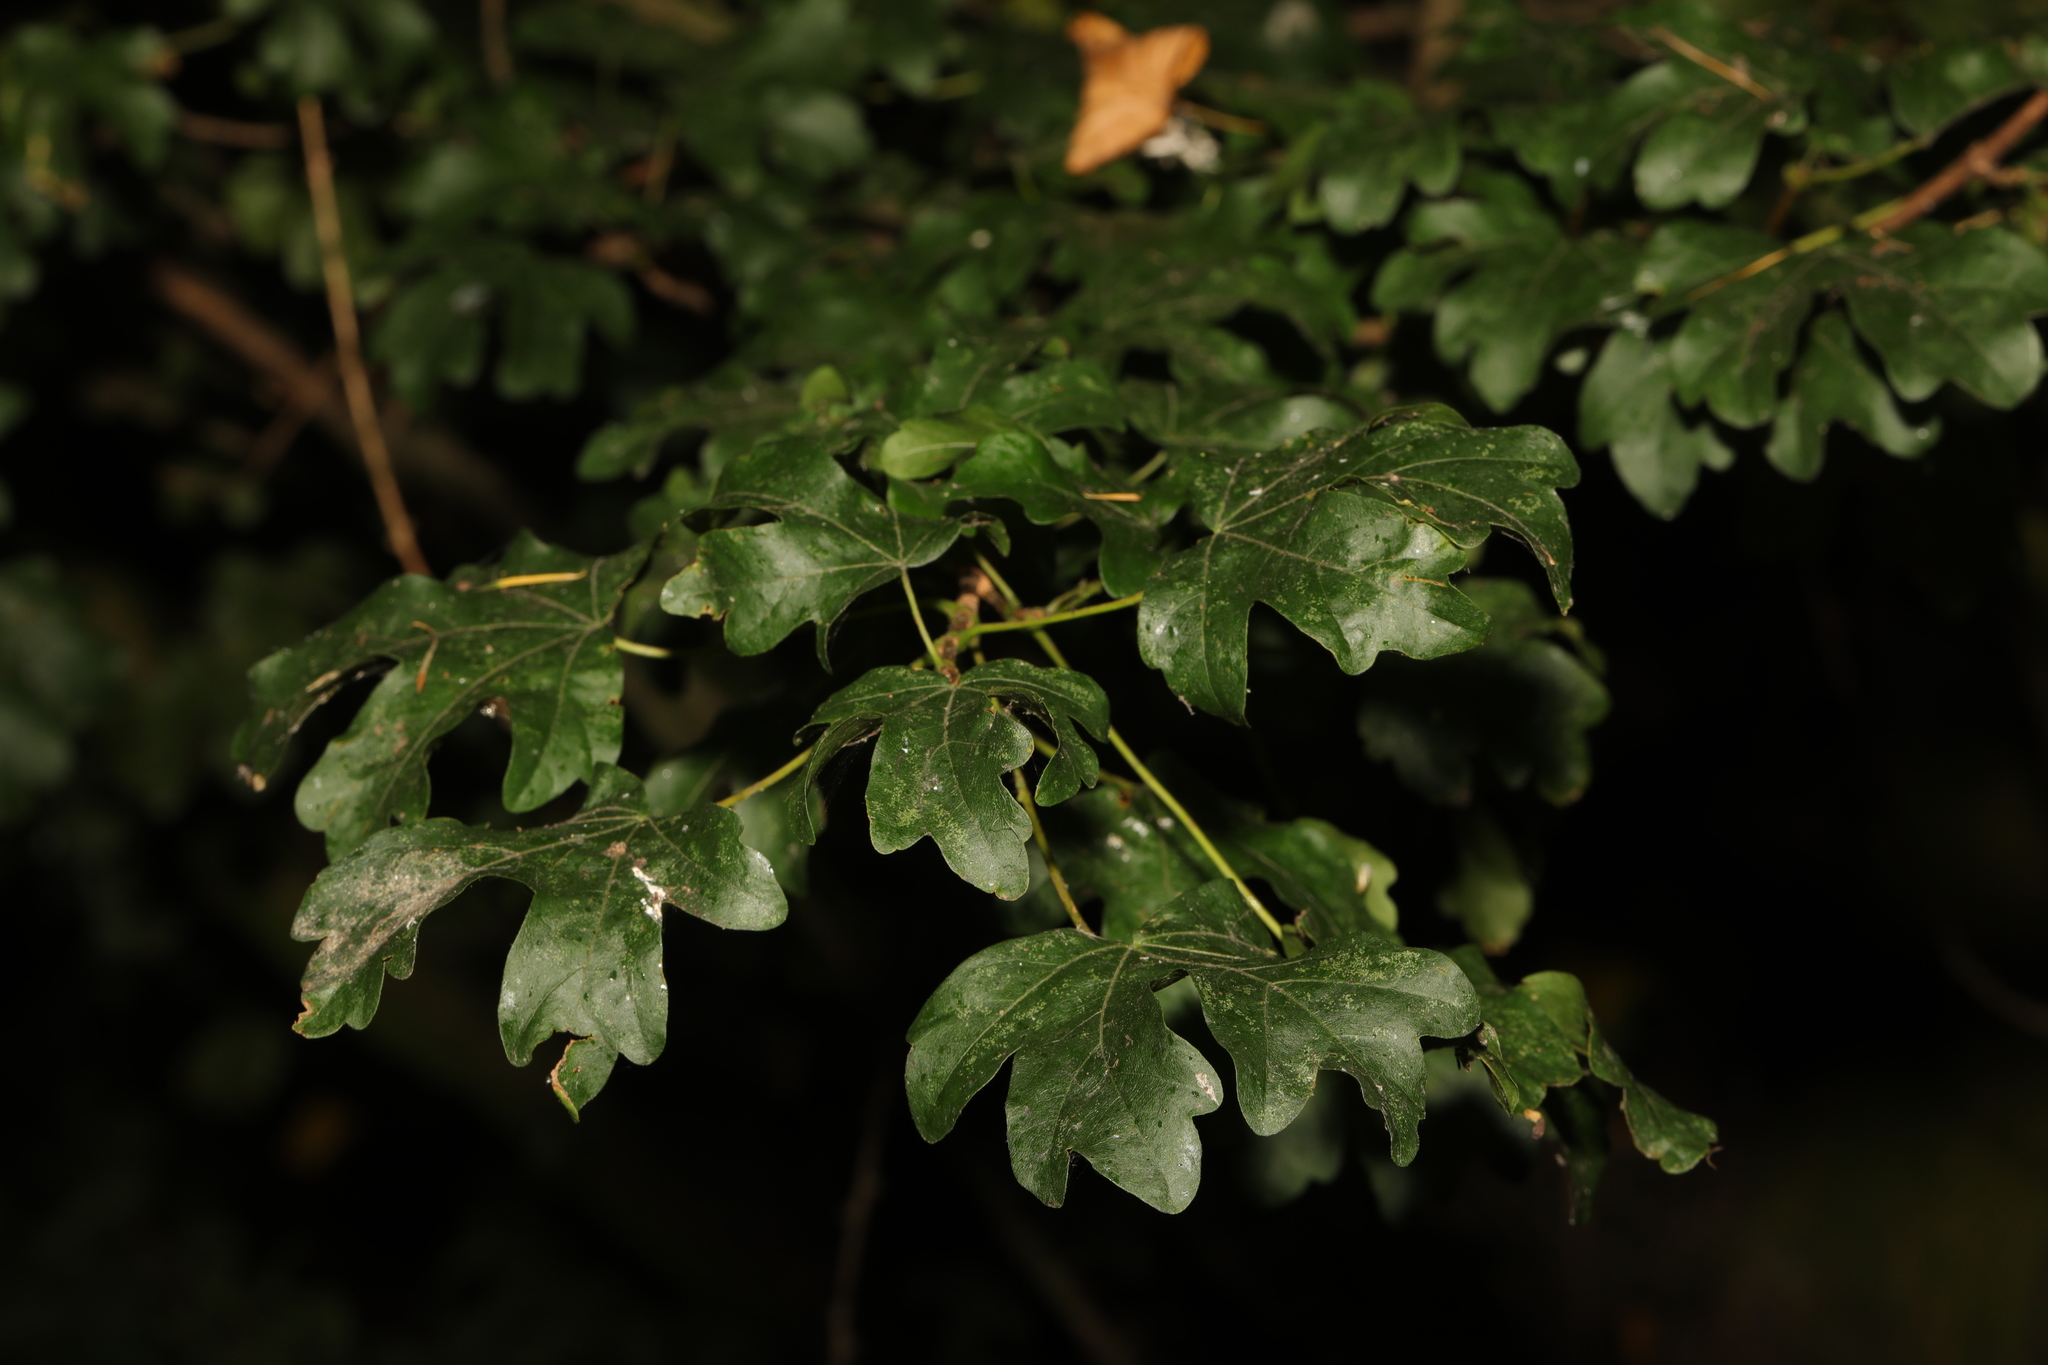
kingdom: Plantae
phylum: Tracheophyta
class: Magnoliopsida
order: Sapindales
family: Sapindaceae
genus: Acer
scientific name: Acer campestre
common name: Field maple
